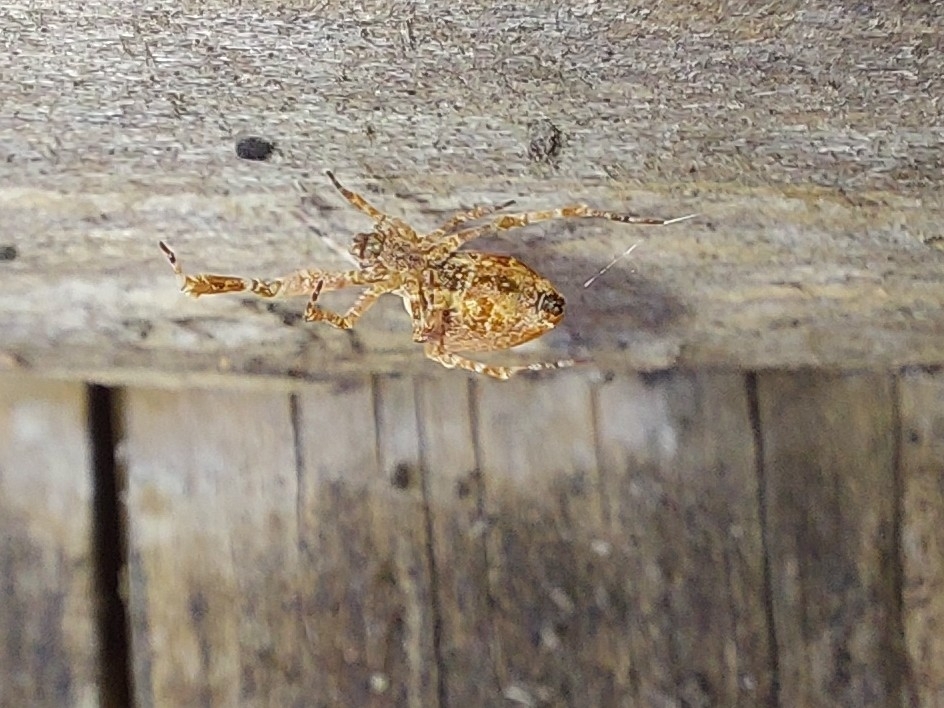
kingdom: Animalia
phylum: Arthropoda
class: Arachnida
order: Araneae
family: Uloboridae
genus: Uloborus
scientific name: Uloborus plumipes
